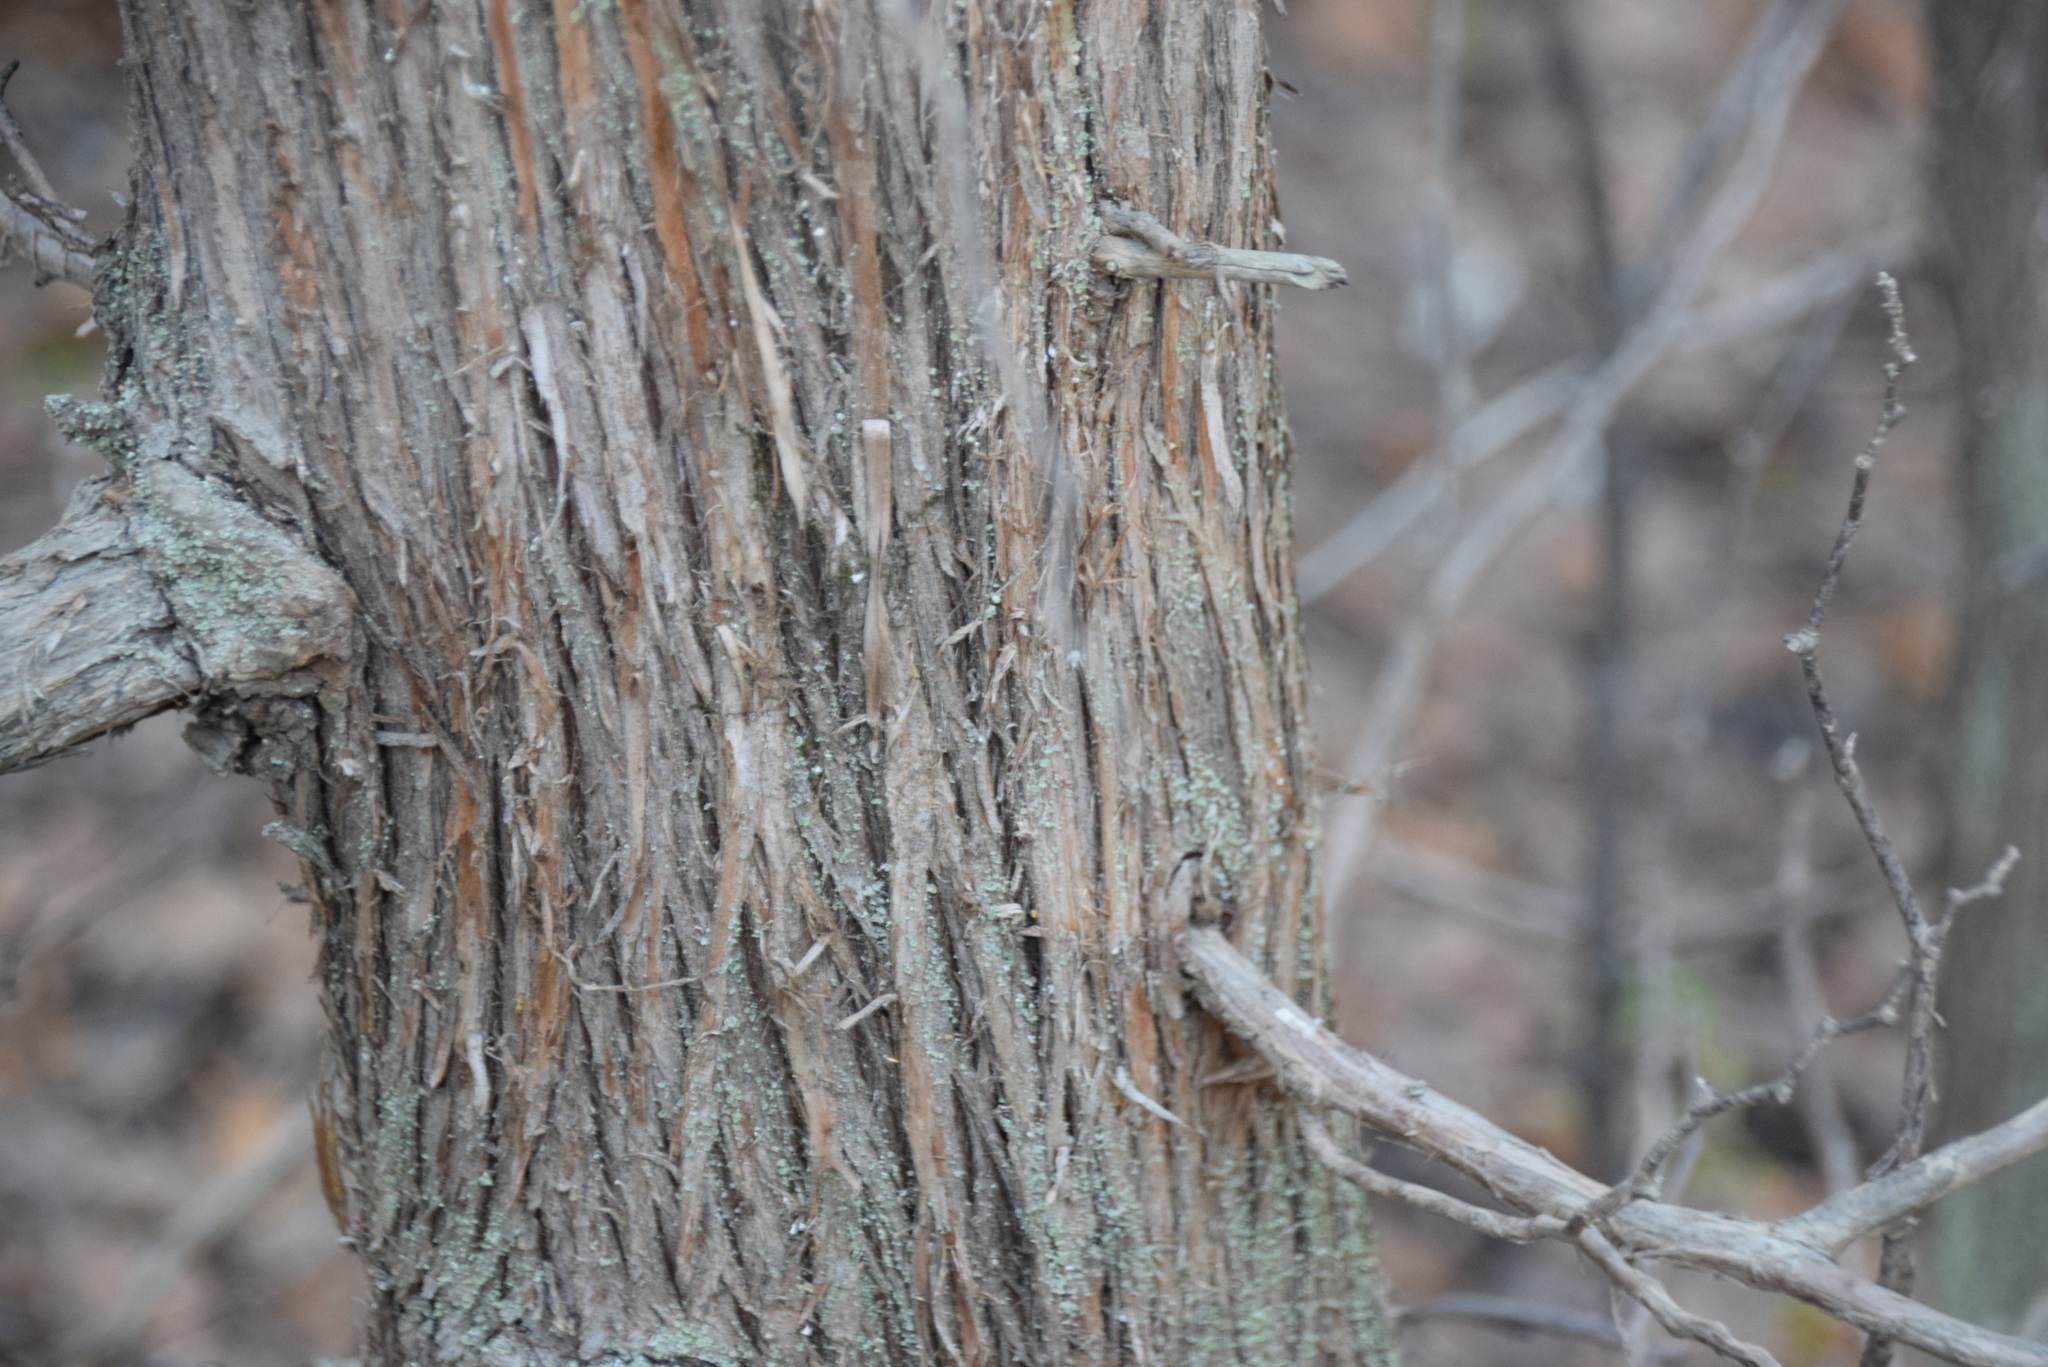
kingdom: Plantae
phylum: Tracheophyta
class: Pinopsida
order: Pinales
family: Cupressaceae
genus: Thuja
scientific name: Thuja occidentalis
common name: Northern white-cedar
